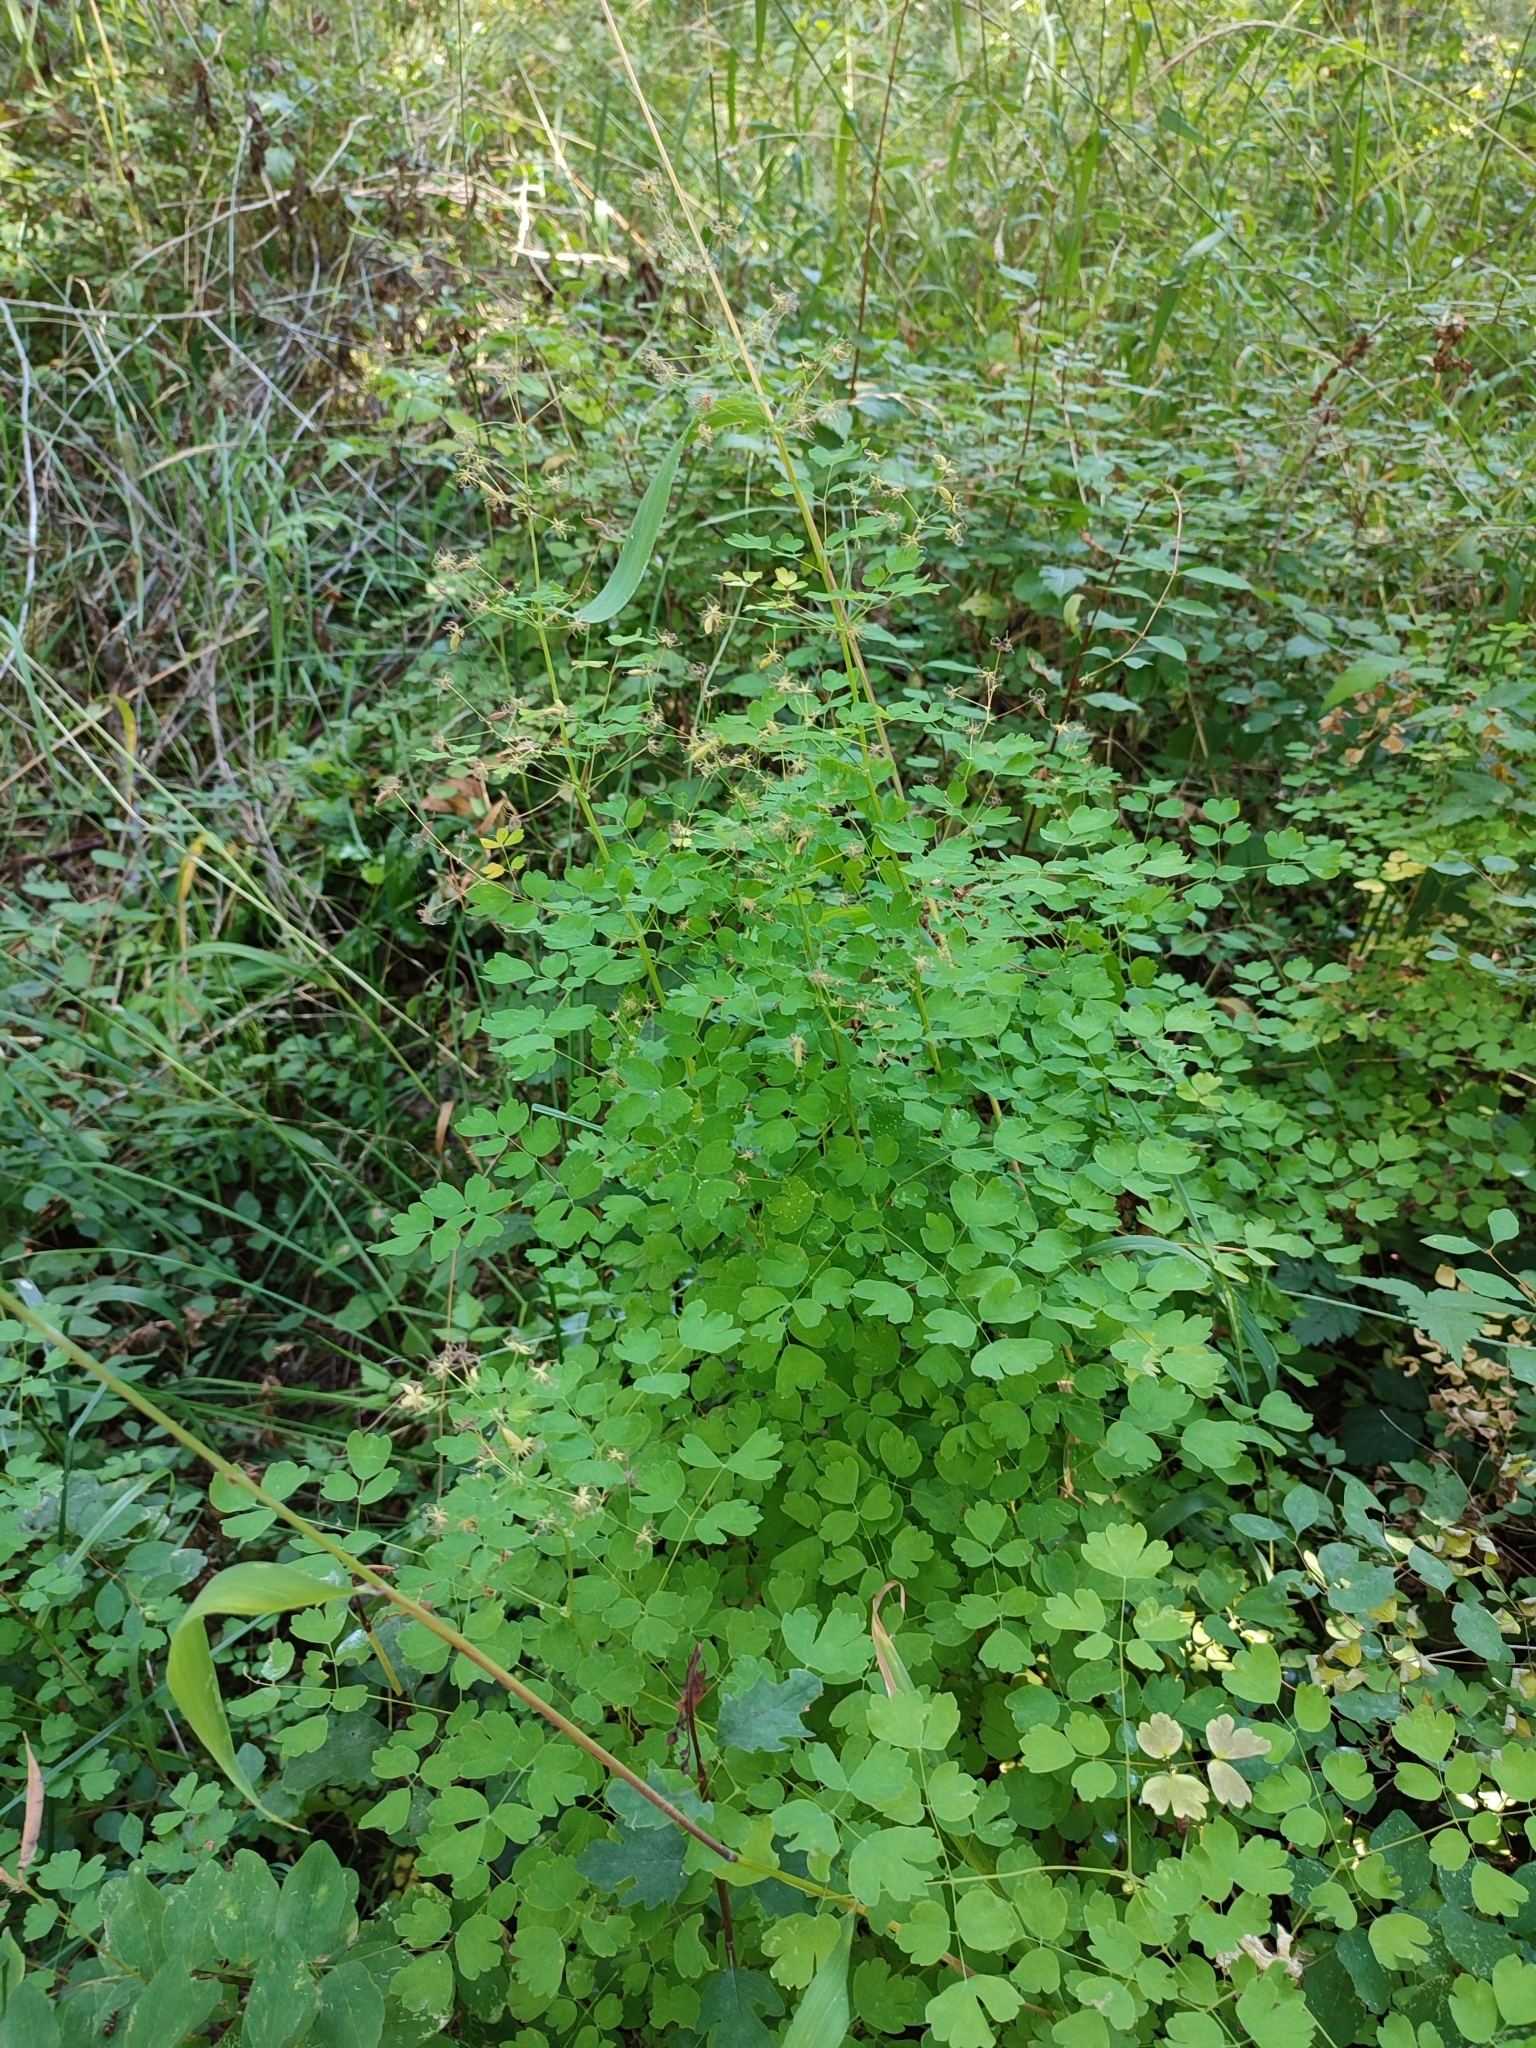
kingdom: Plantae
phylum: Tracheophyta
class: Magnoliopsida
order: Ranunculales
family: Ranunculaceae
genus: Thalictrum
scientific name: Thalictrum occidentale
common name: Western meadow-rue
